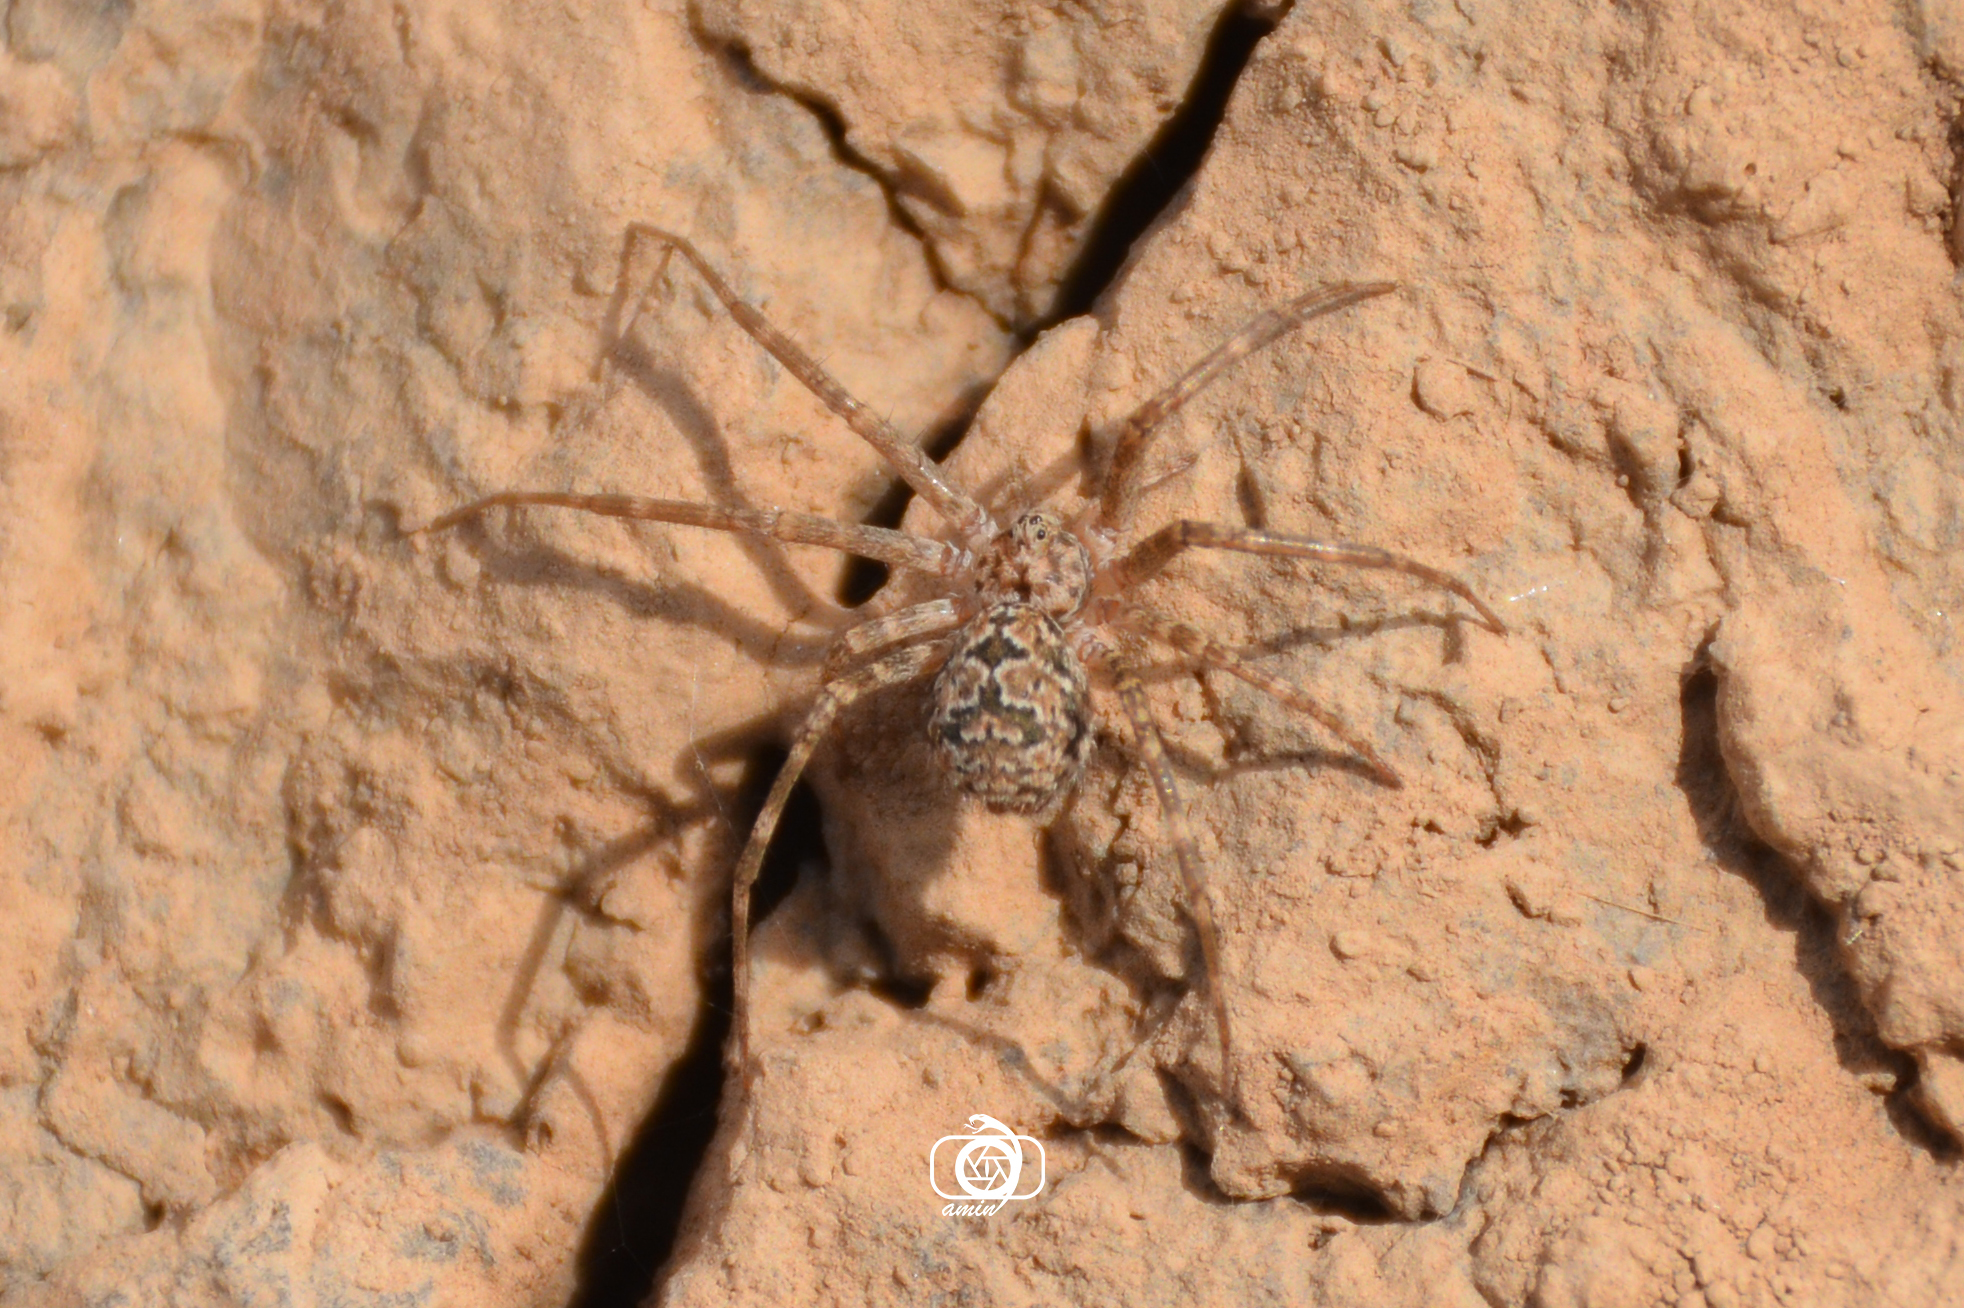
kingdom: Animalia
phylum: Arthropoda
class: Arachnida
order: Araneae
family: Hersiliidae
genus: Hersiliola
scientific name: Hersiliola simoni
